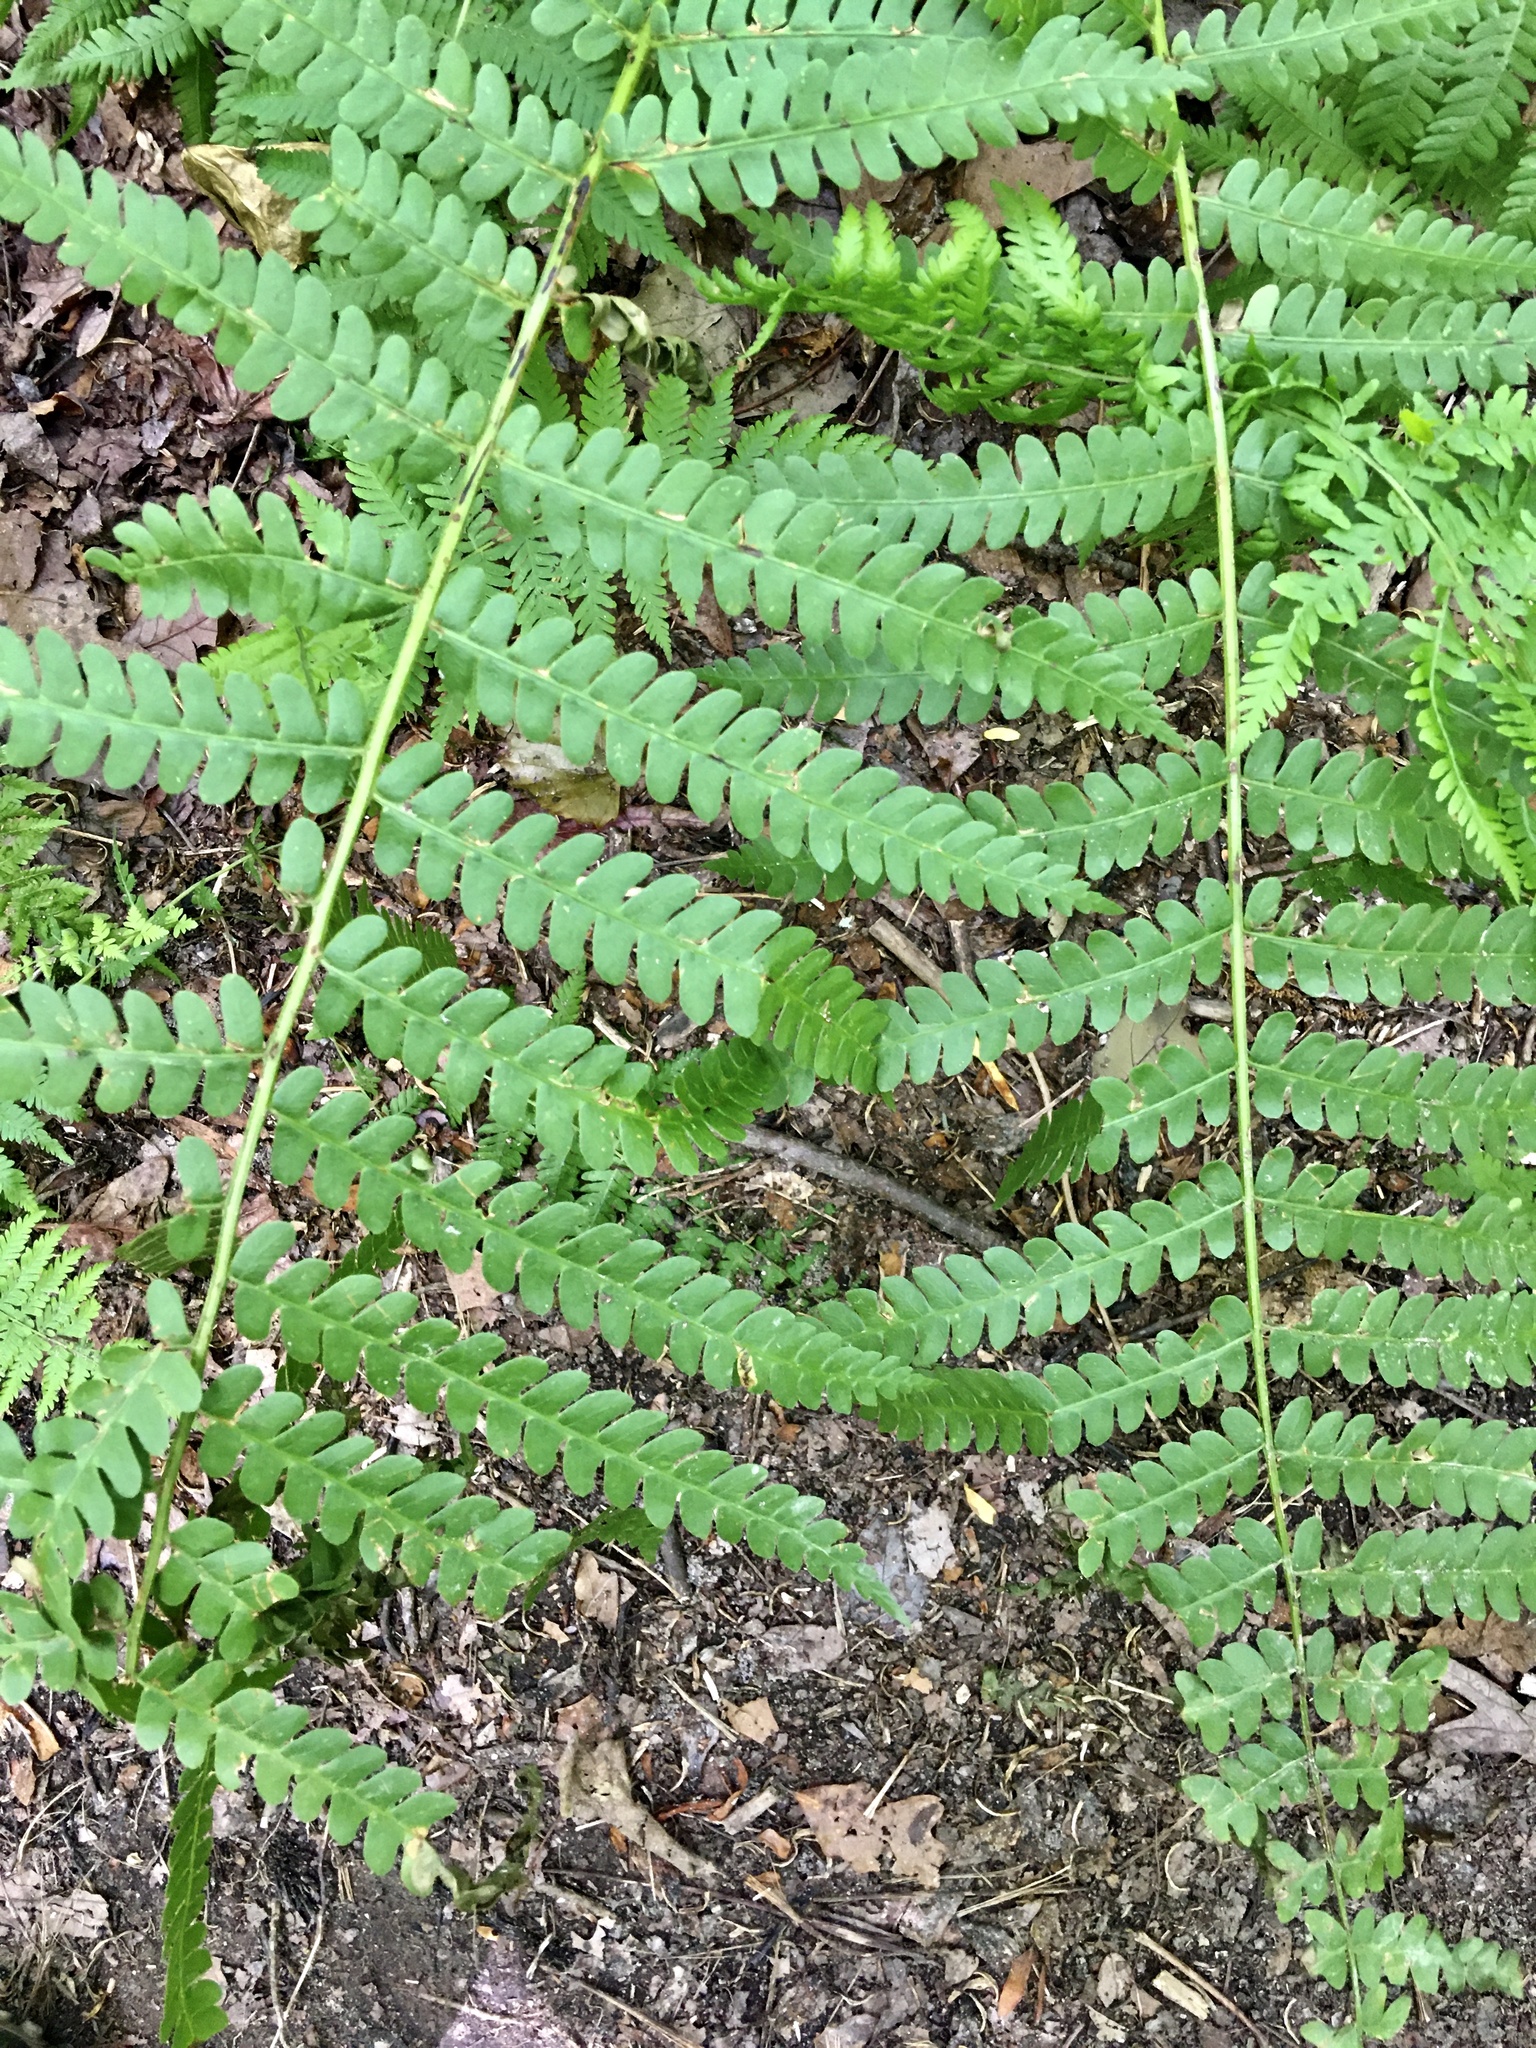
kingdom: Plantae
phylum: Tracheophyta
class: Polypodiopsida
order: Osmundales
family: Osmundaceae
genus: Osmundastrum
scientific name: Osmundastrum cinnamomeum
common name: Cinnamon fern
